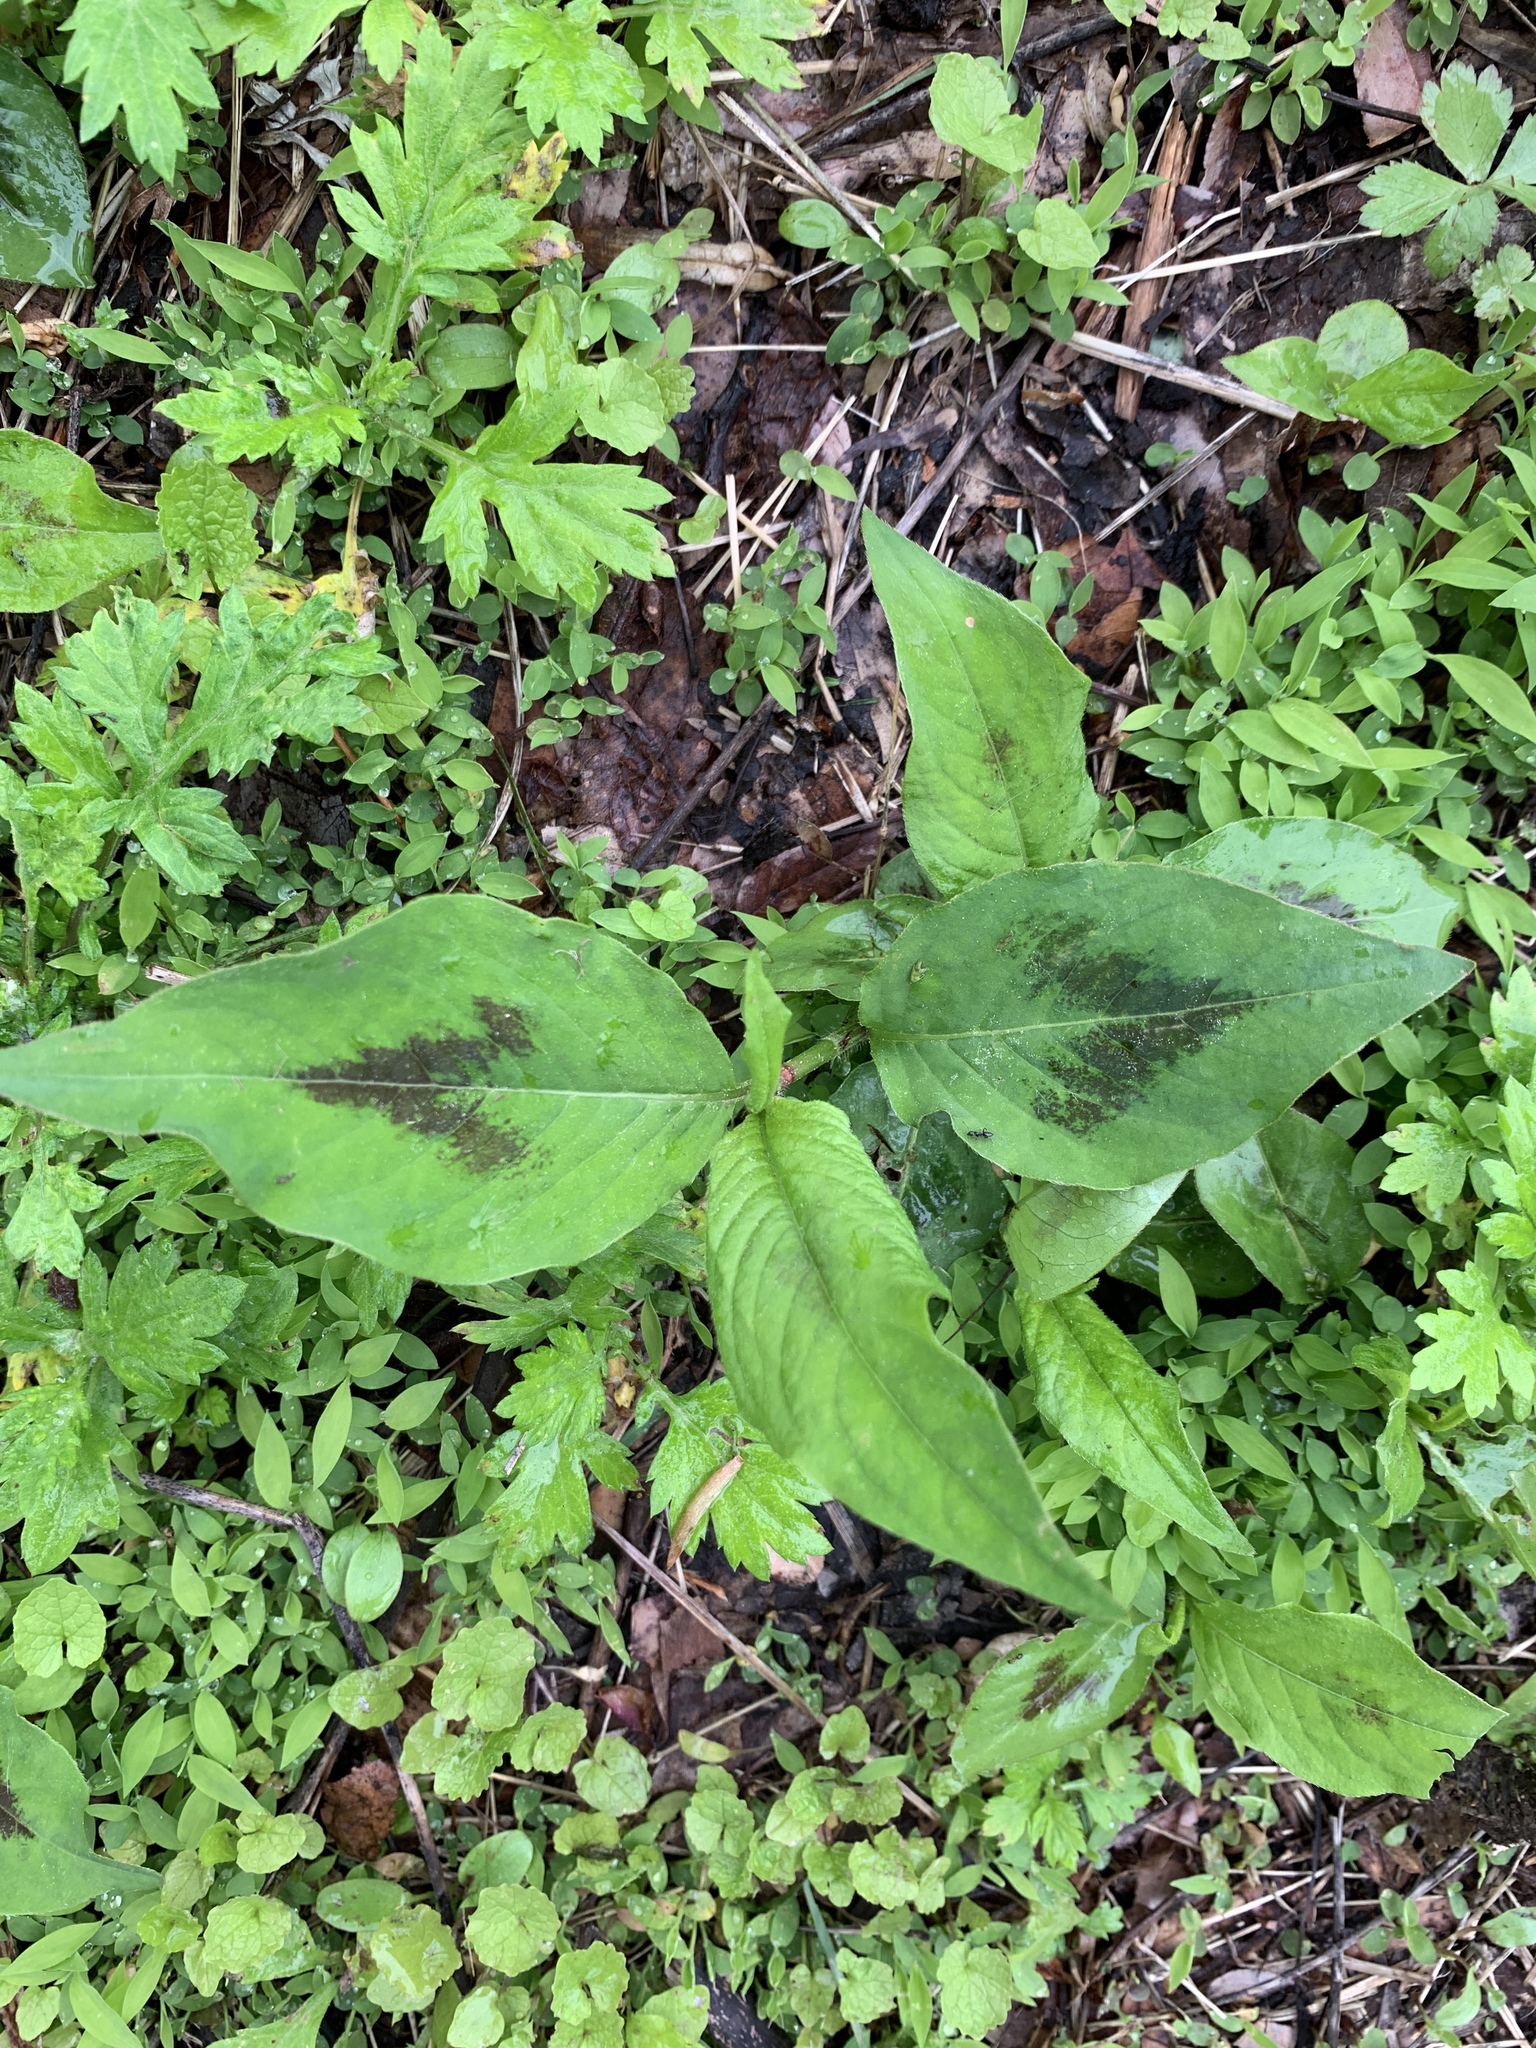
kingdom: Plantae
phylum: Tracheophyta
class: Magnoliopsida
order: Caryophyllales
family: Polygonaceae
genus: Persicaria
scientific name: Persicaria virginiana
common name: Jumpseed
